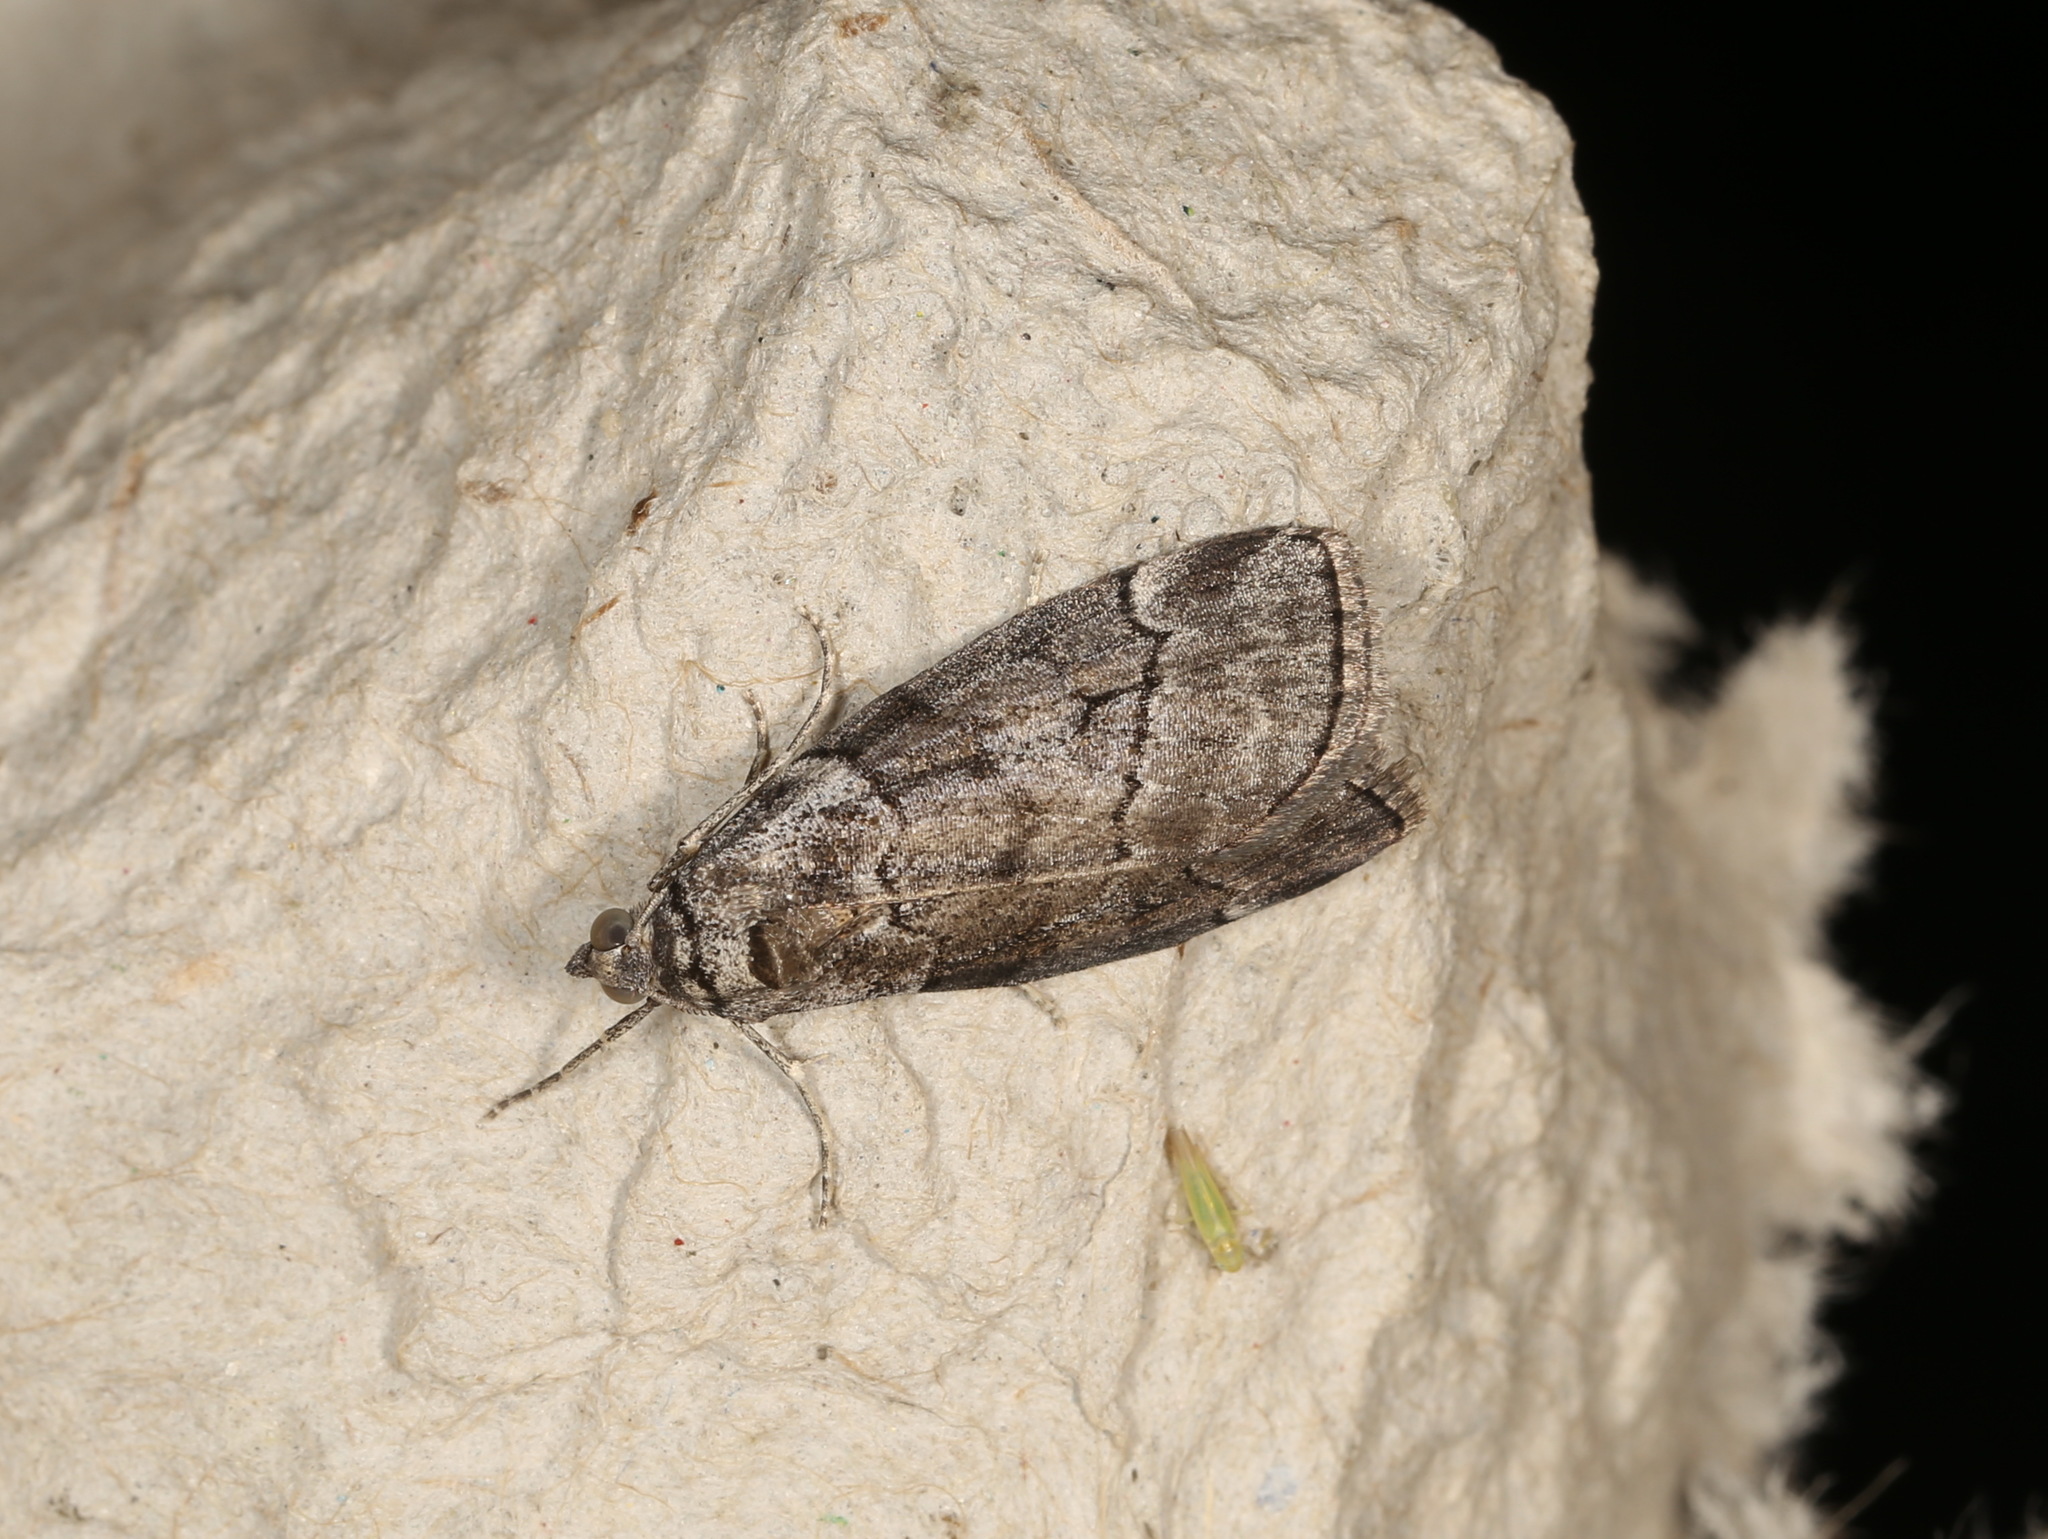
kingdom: Animalia
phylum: Arthropoda
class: Insecta
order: Lepidoptera
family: Geometridae
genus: Corula
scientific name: Corula geometroides
